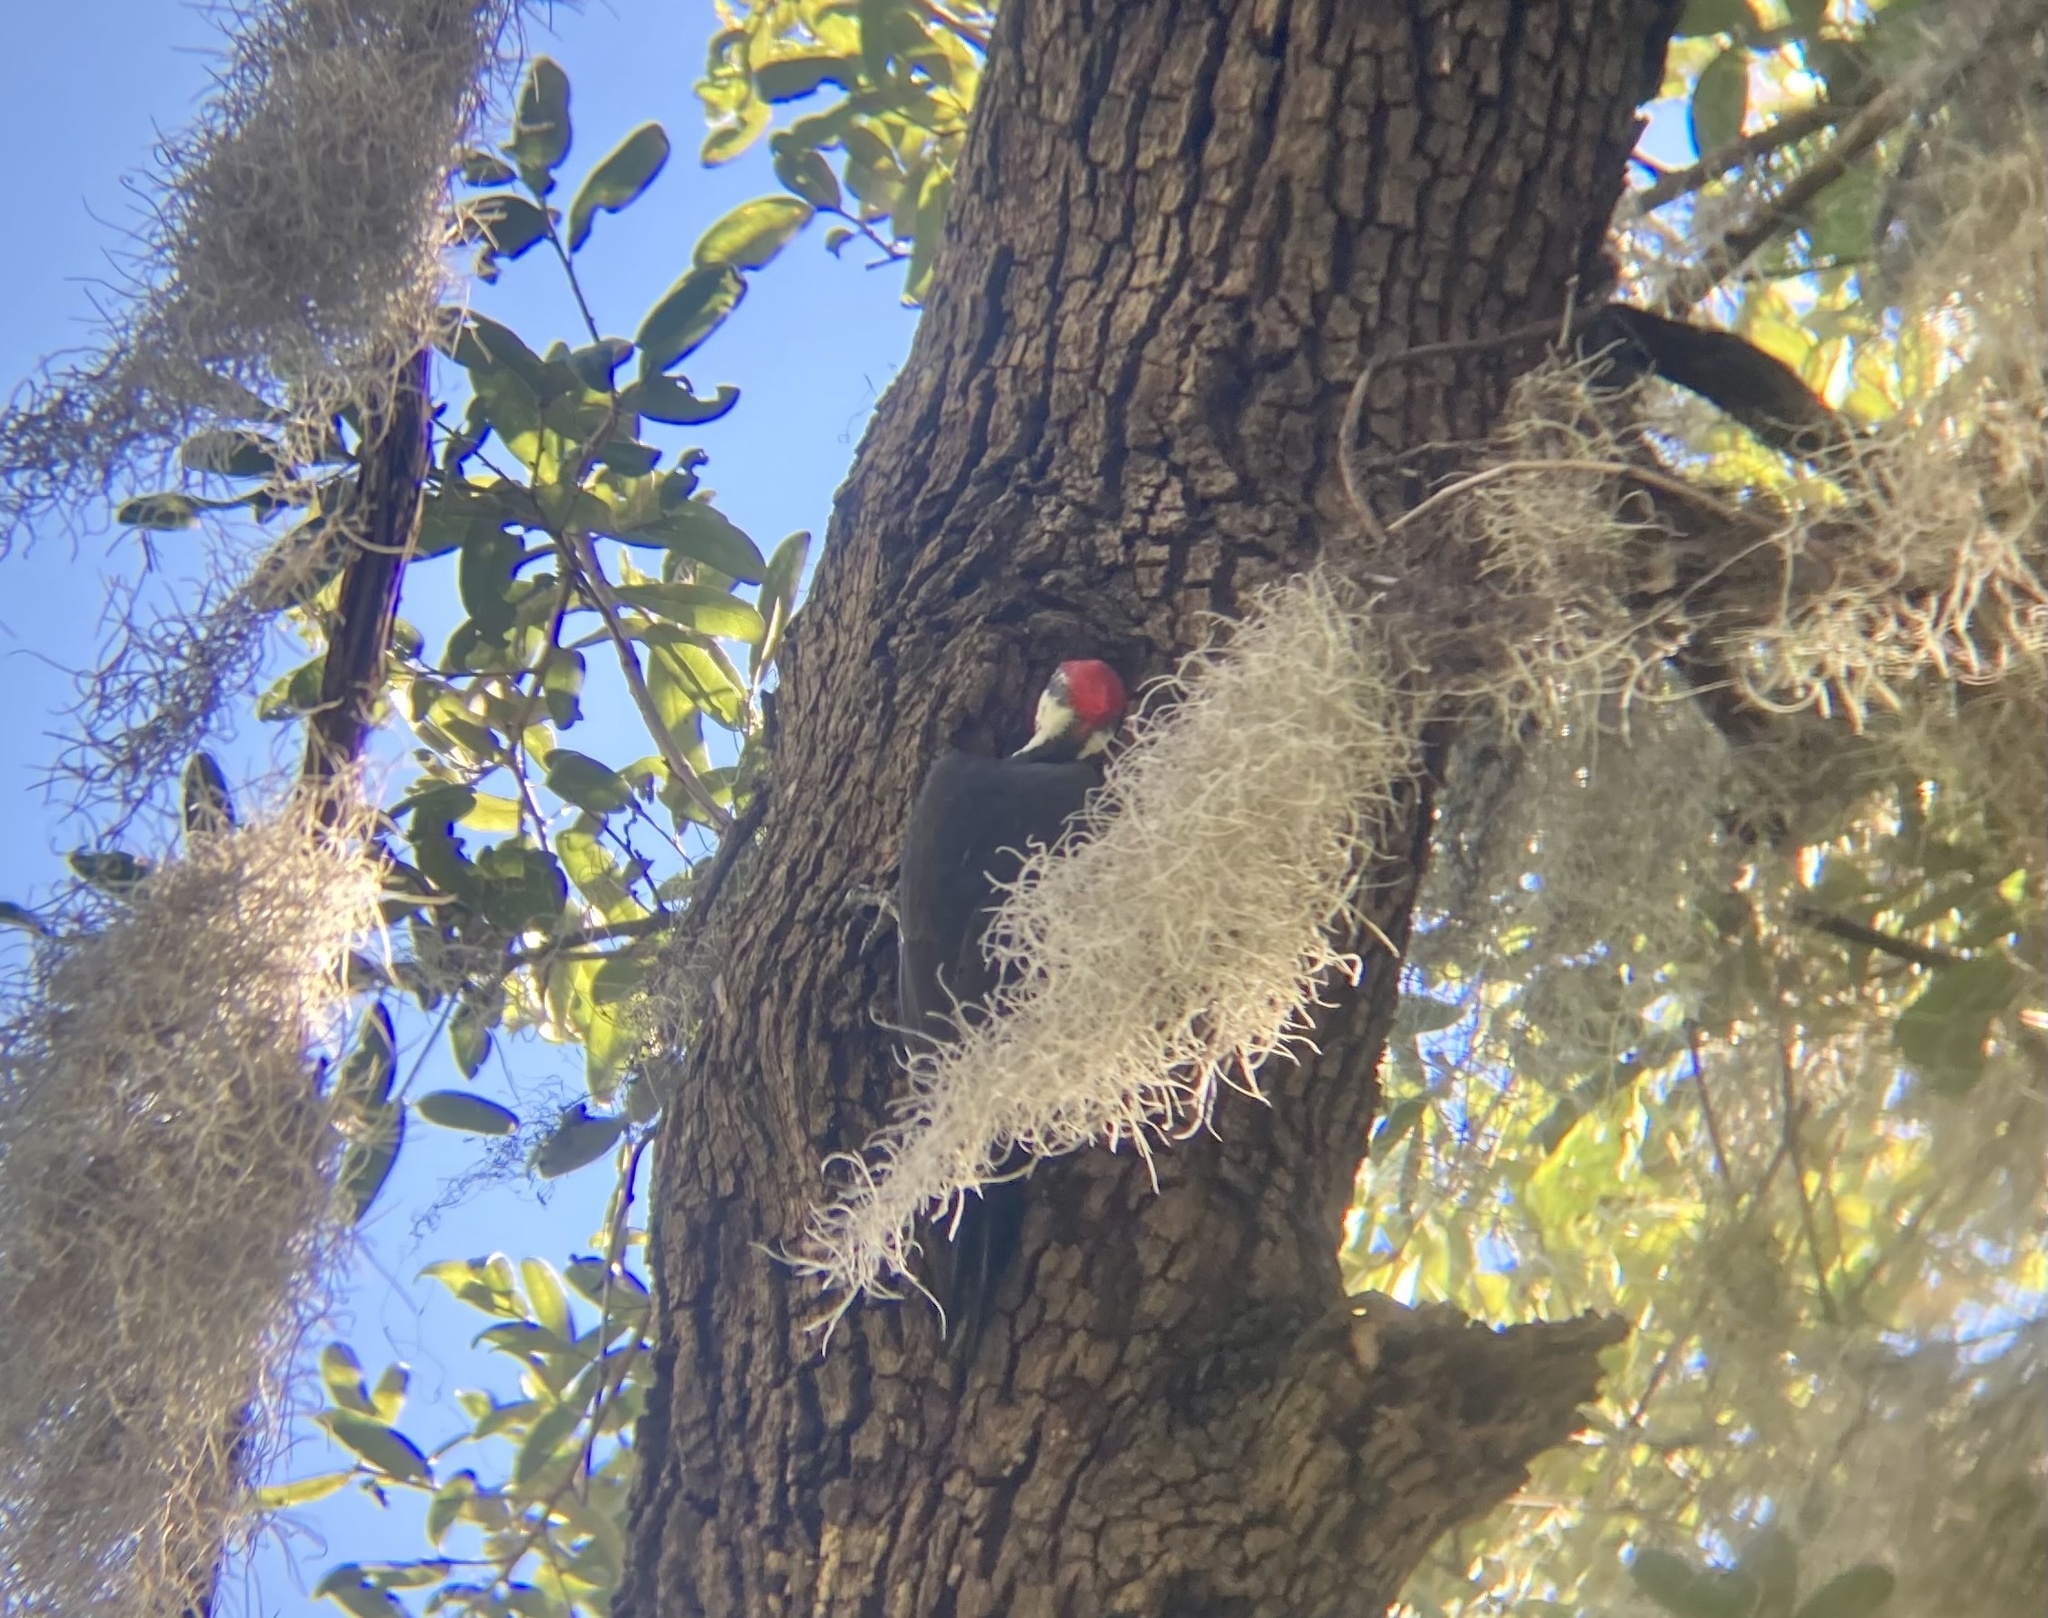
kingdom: Animalia
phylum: Chordata
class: Aves
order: Piciformes
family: Picidae
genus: Dryocopus
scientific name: Dryocopus pileatus
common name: Pileated woodpecker
